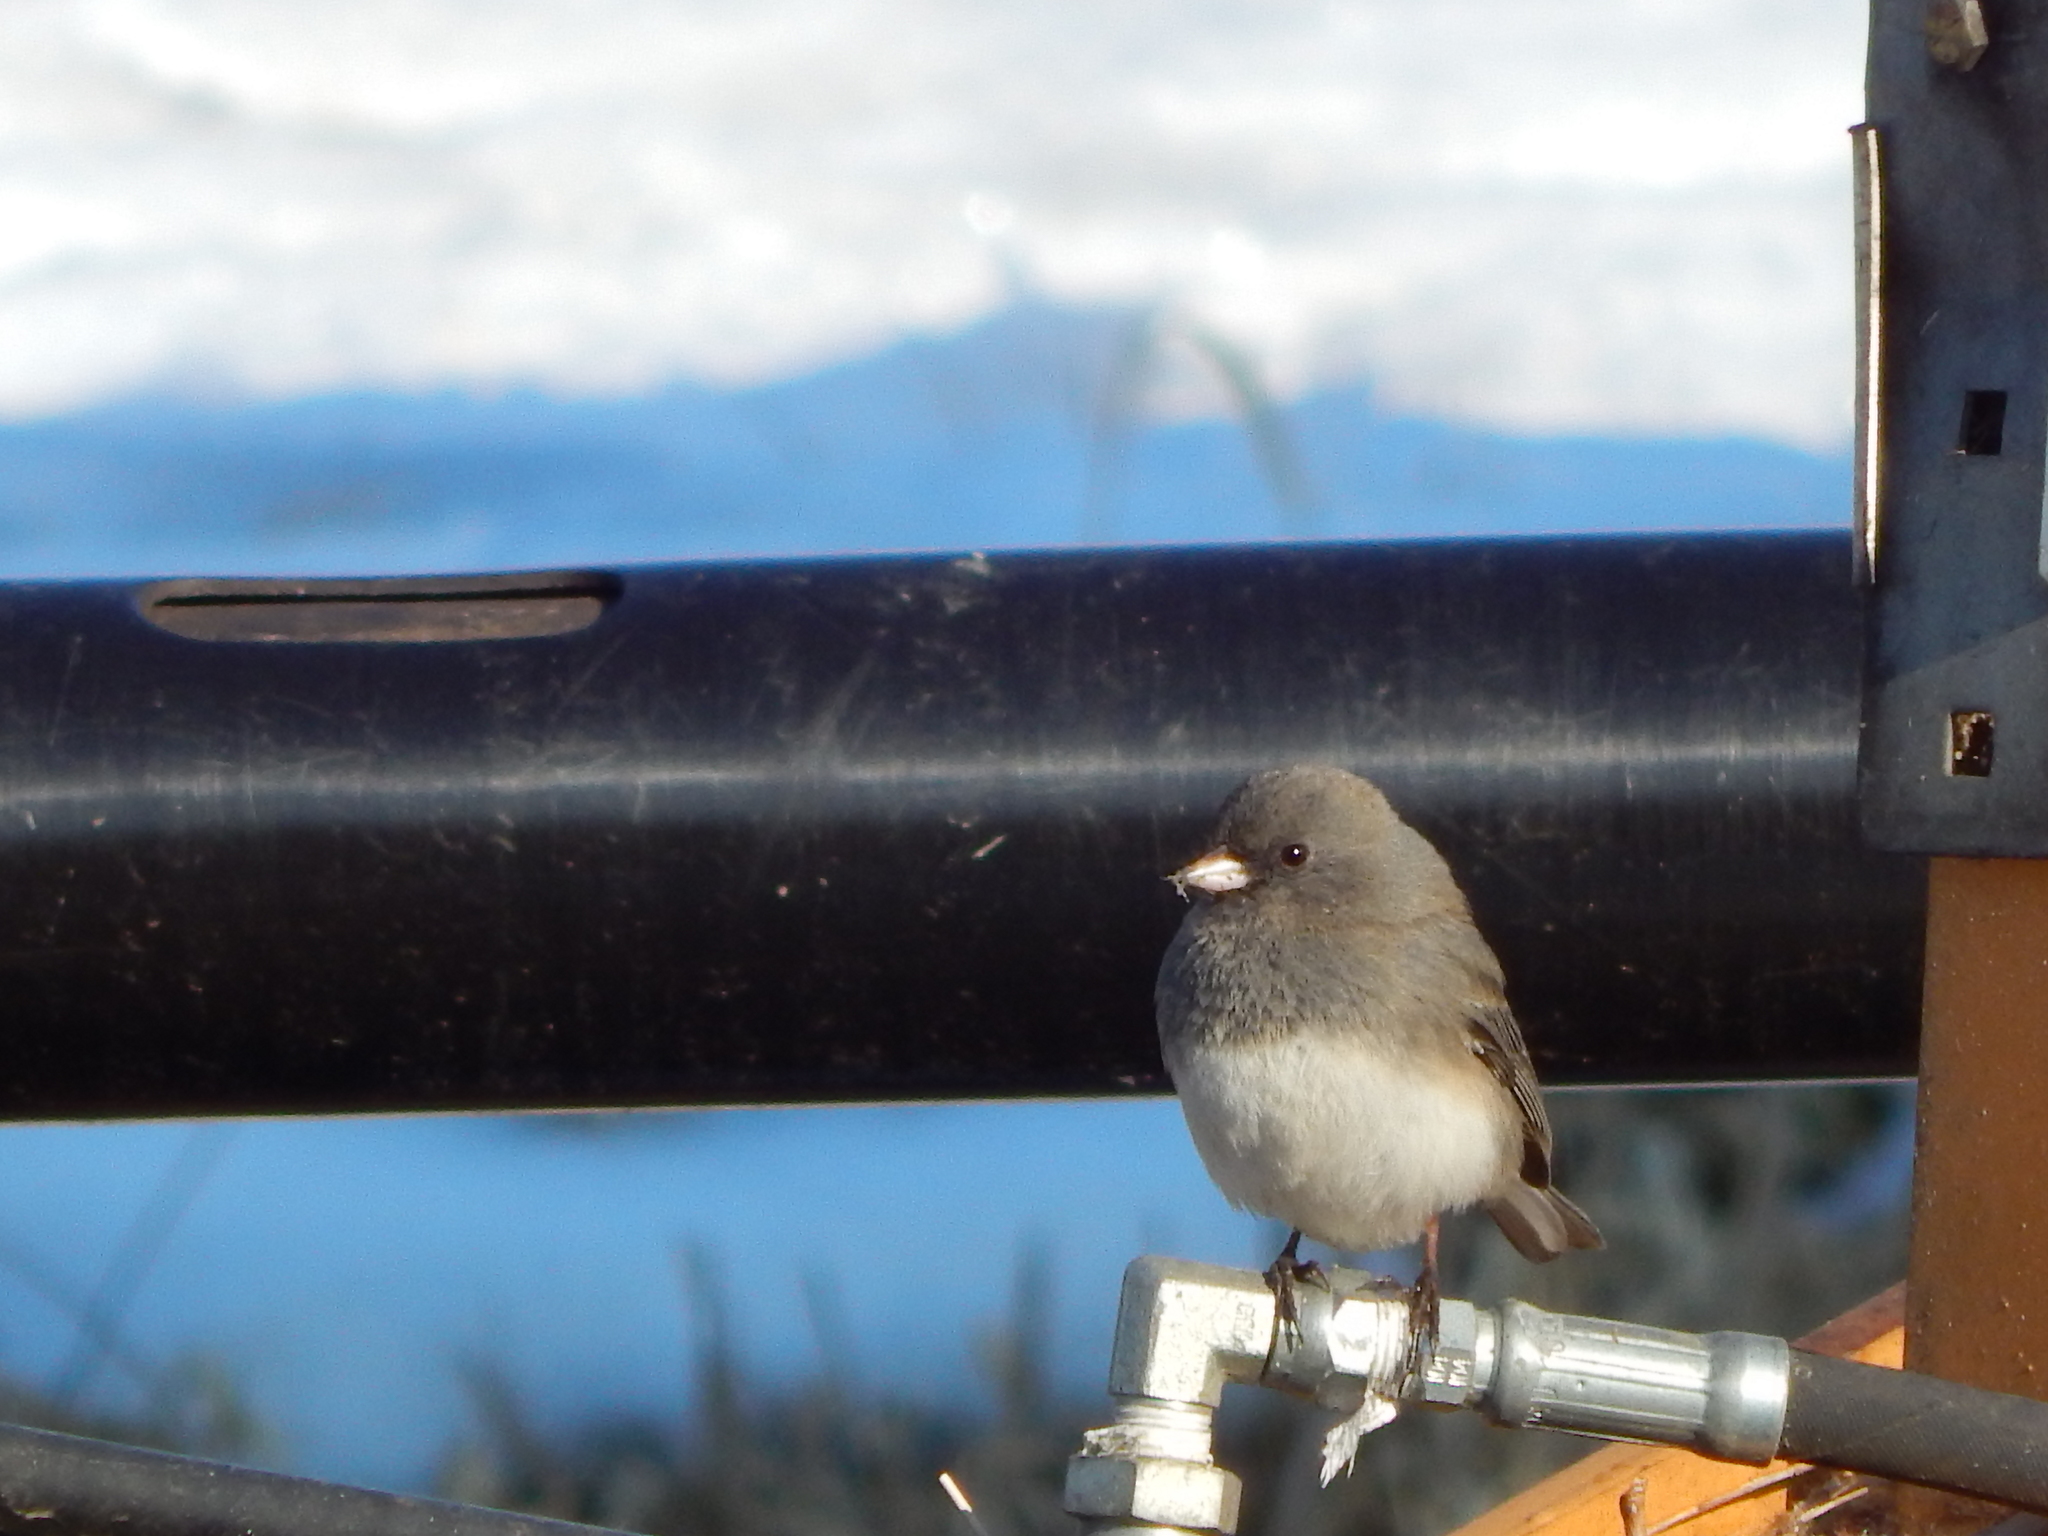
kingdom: Animalia
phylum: Chordata
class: Aves
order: Passeriformes
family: Passerellidae
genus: Junco
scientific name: Junco hyemalis
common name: Dark-eyed junco
